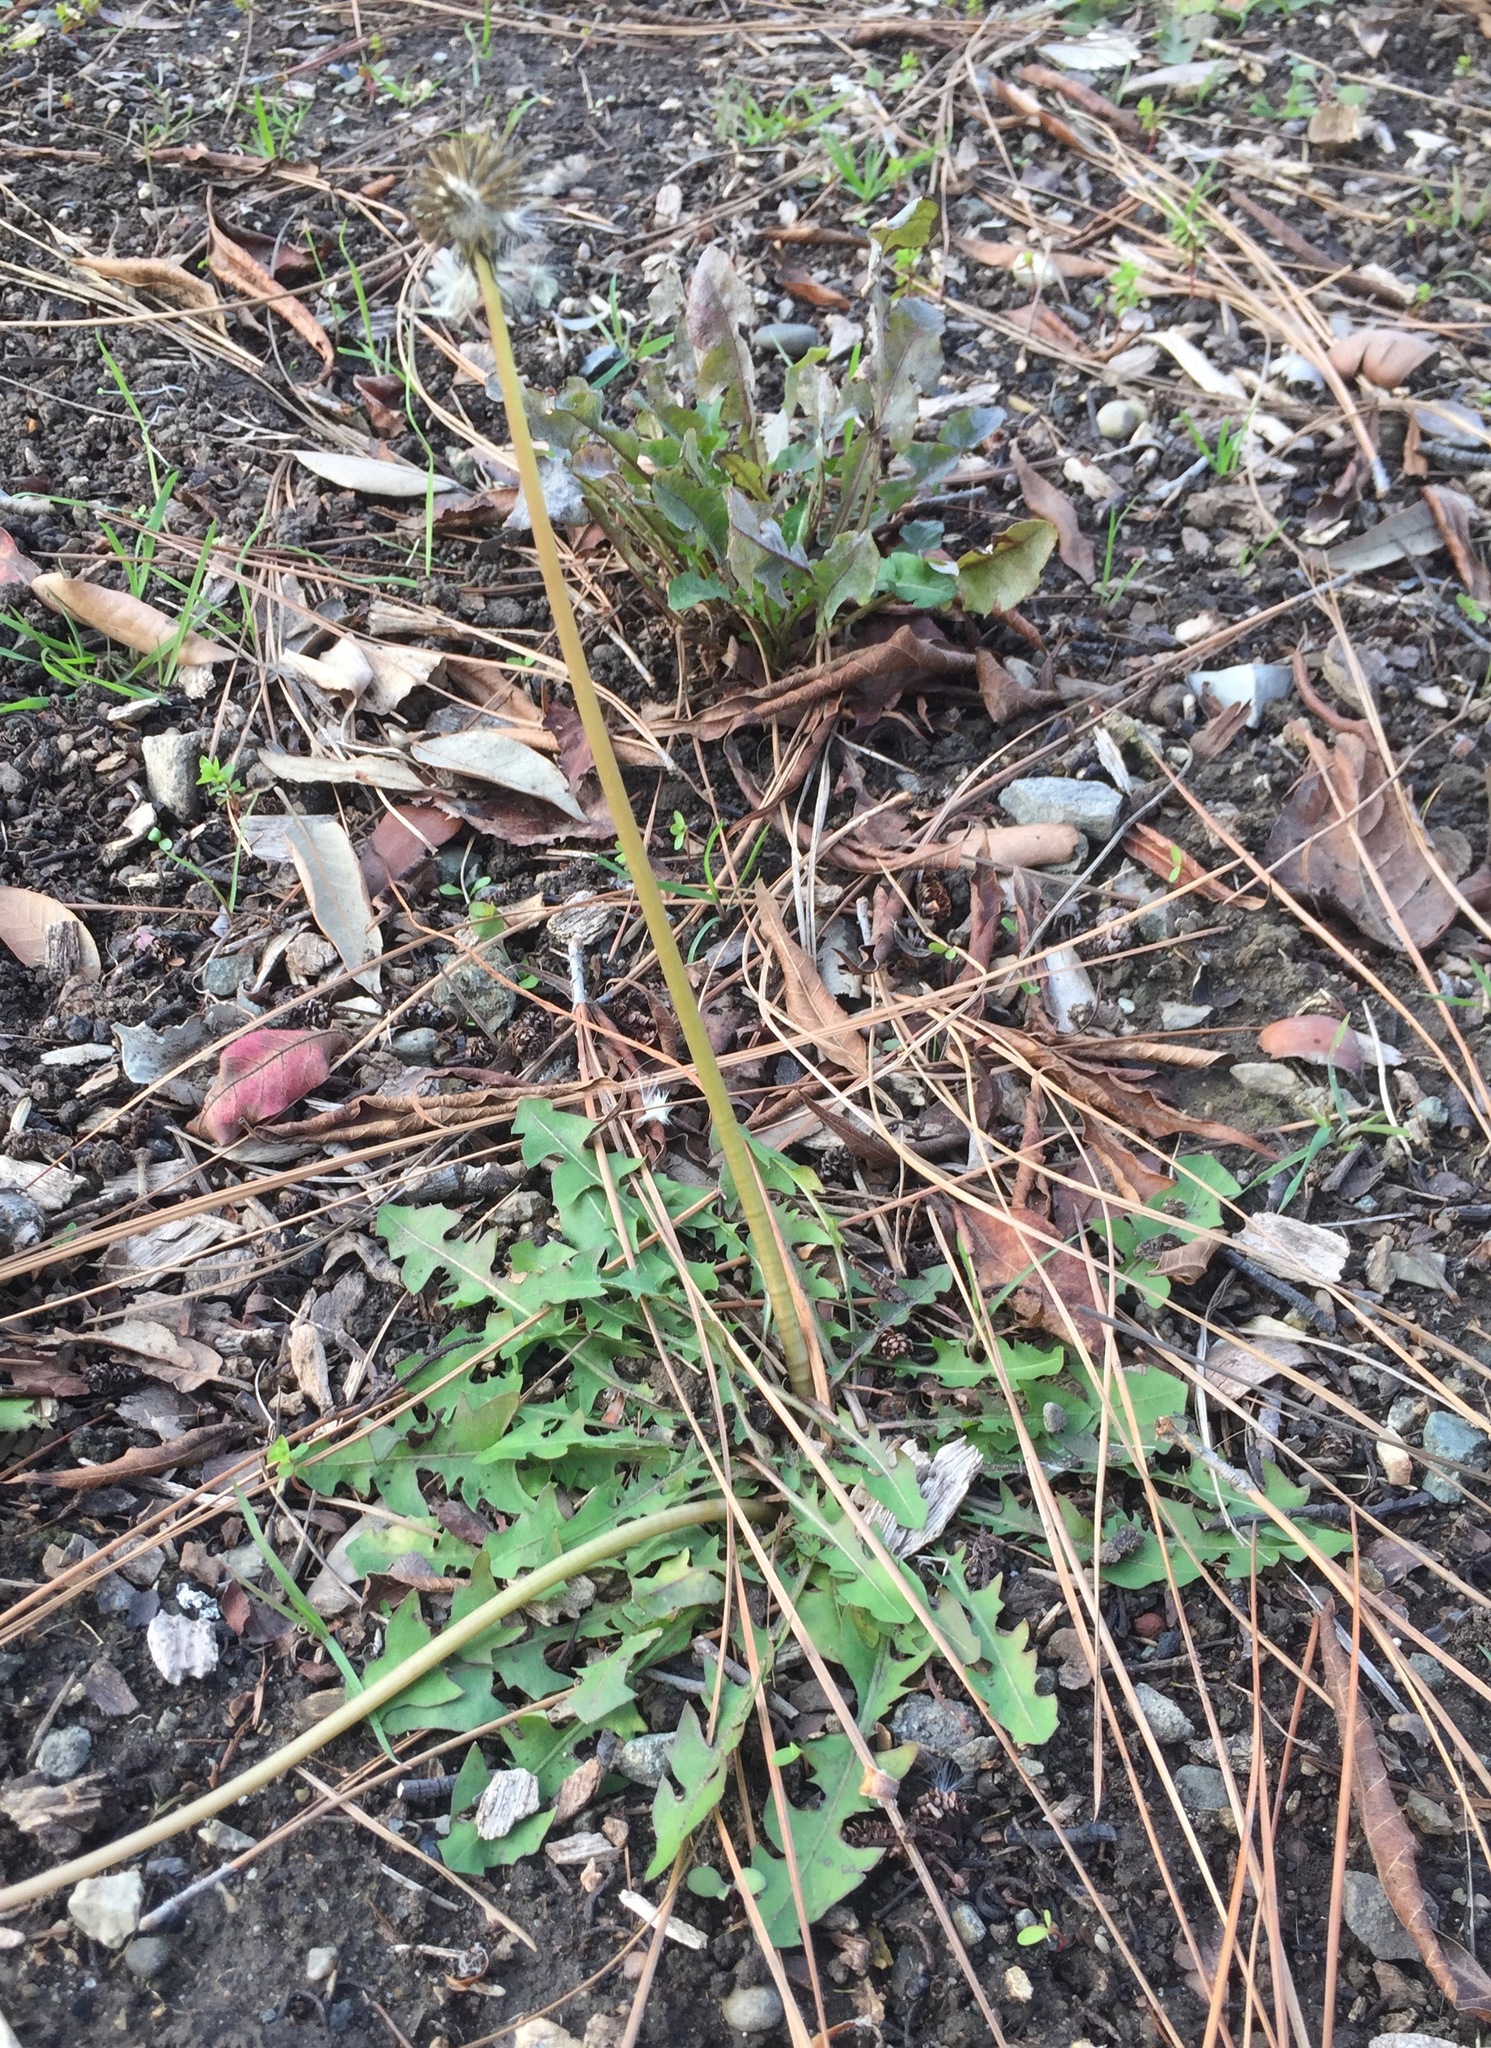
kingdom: Plantae
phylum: Tracheophyta
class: Magnoliopsida
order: Asterales
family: Asteraceae
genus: Taraxacum
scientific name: Taraxacum officinale
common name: Common dandelion
